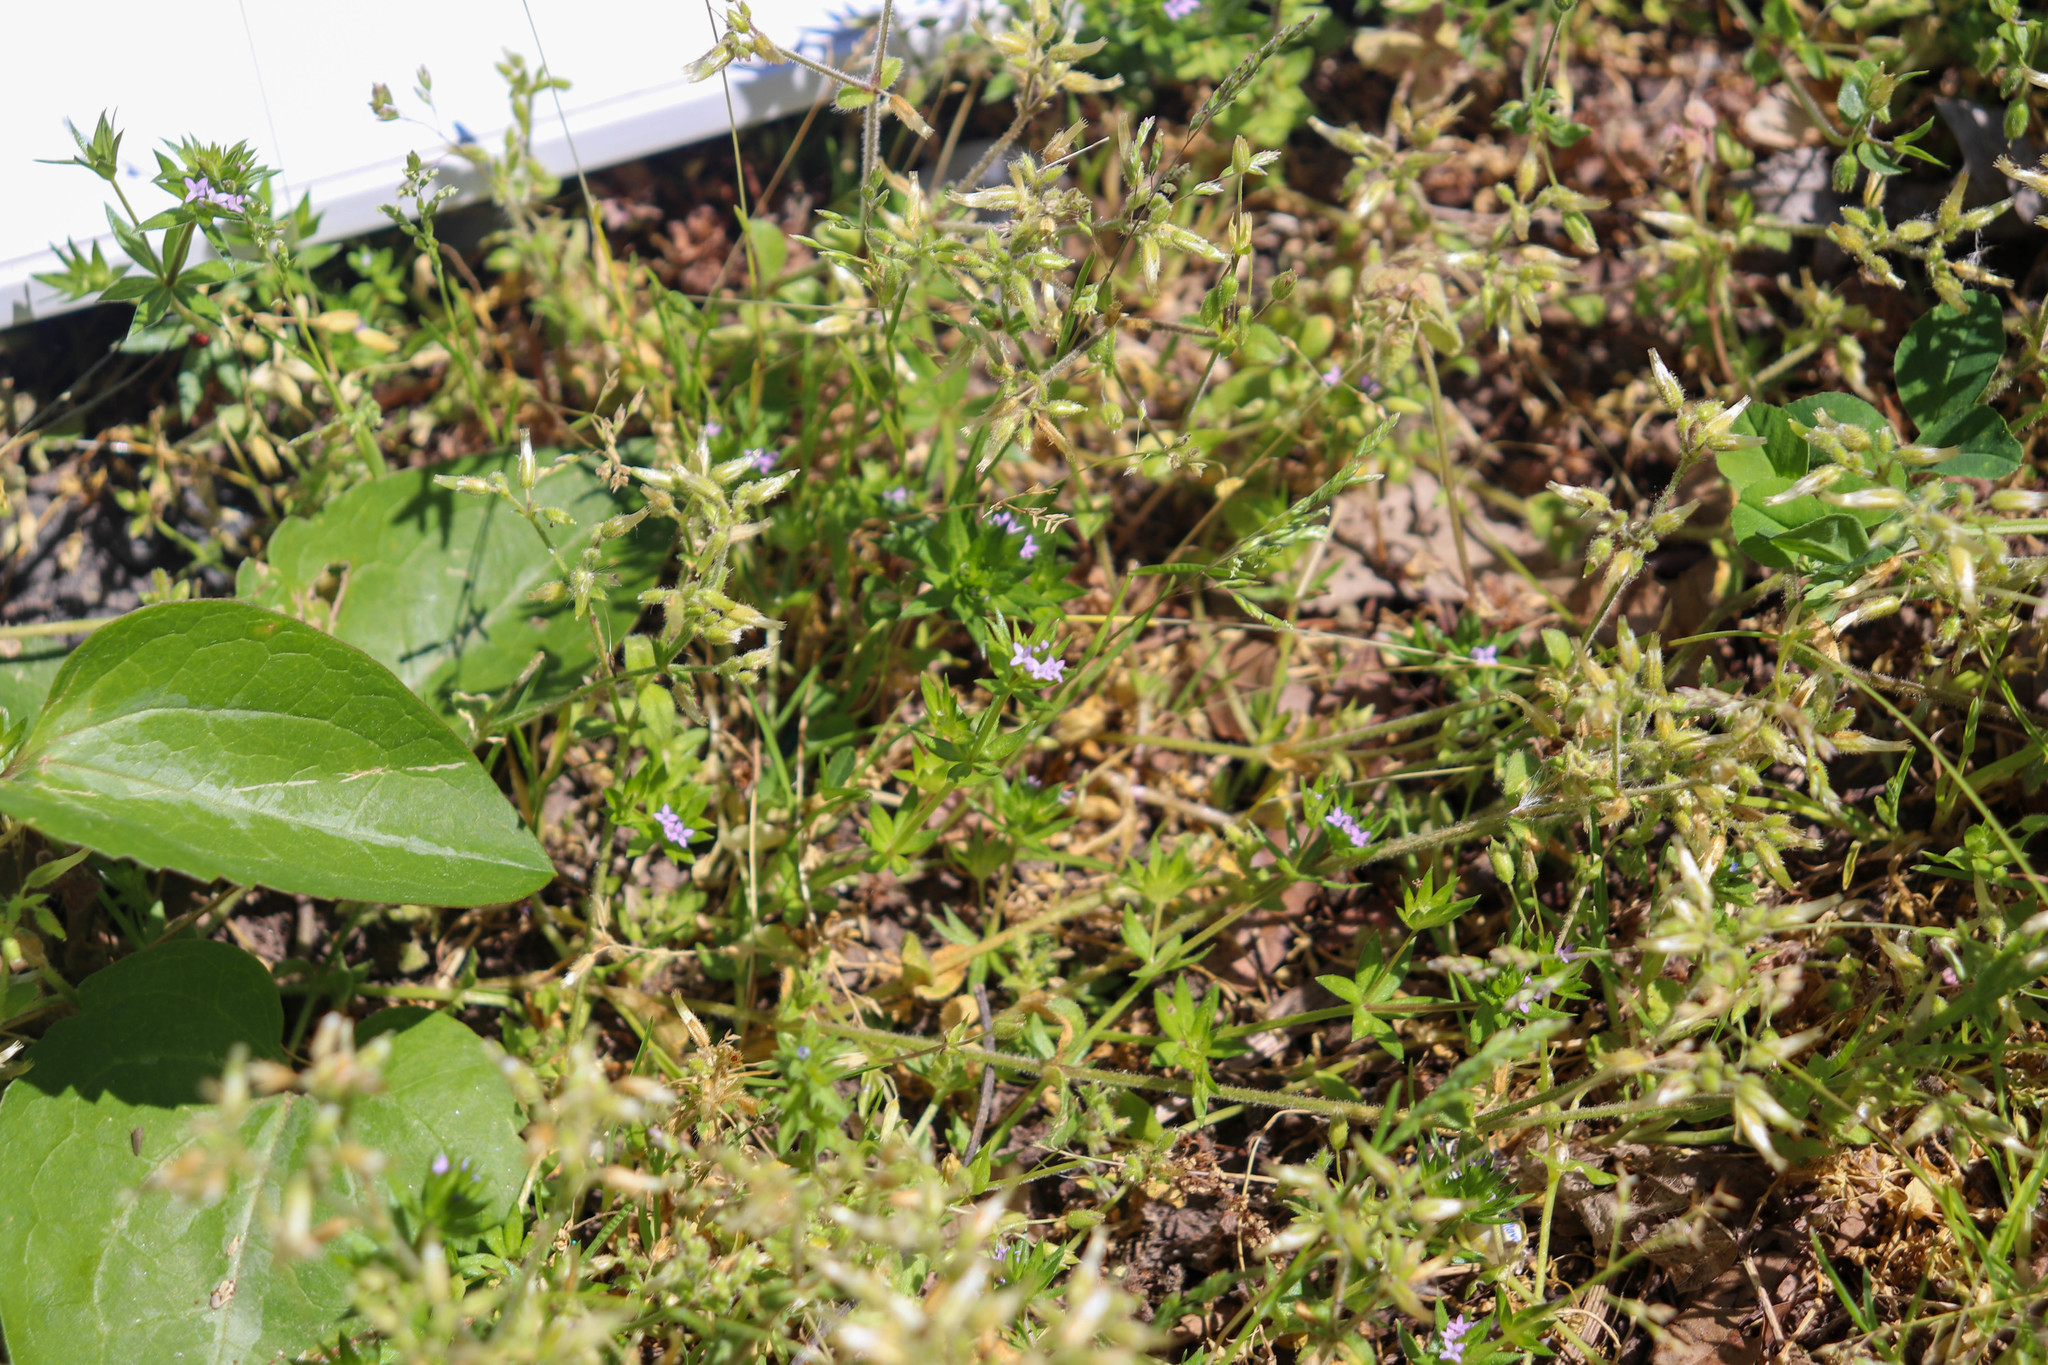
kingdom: Plantae
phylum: Tracheophyta
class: Magnoliopsida
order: Gentianales
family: Rubiaceae
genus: Sherardia
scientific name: Sherardia arvensis
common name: Field madder
